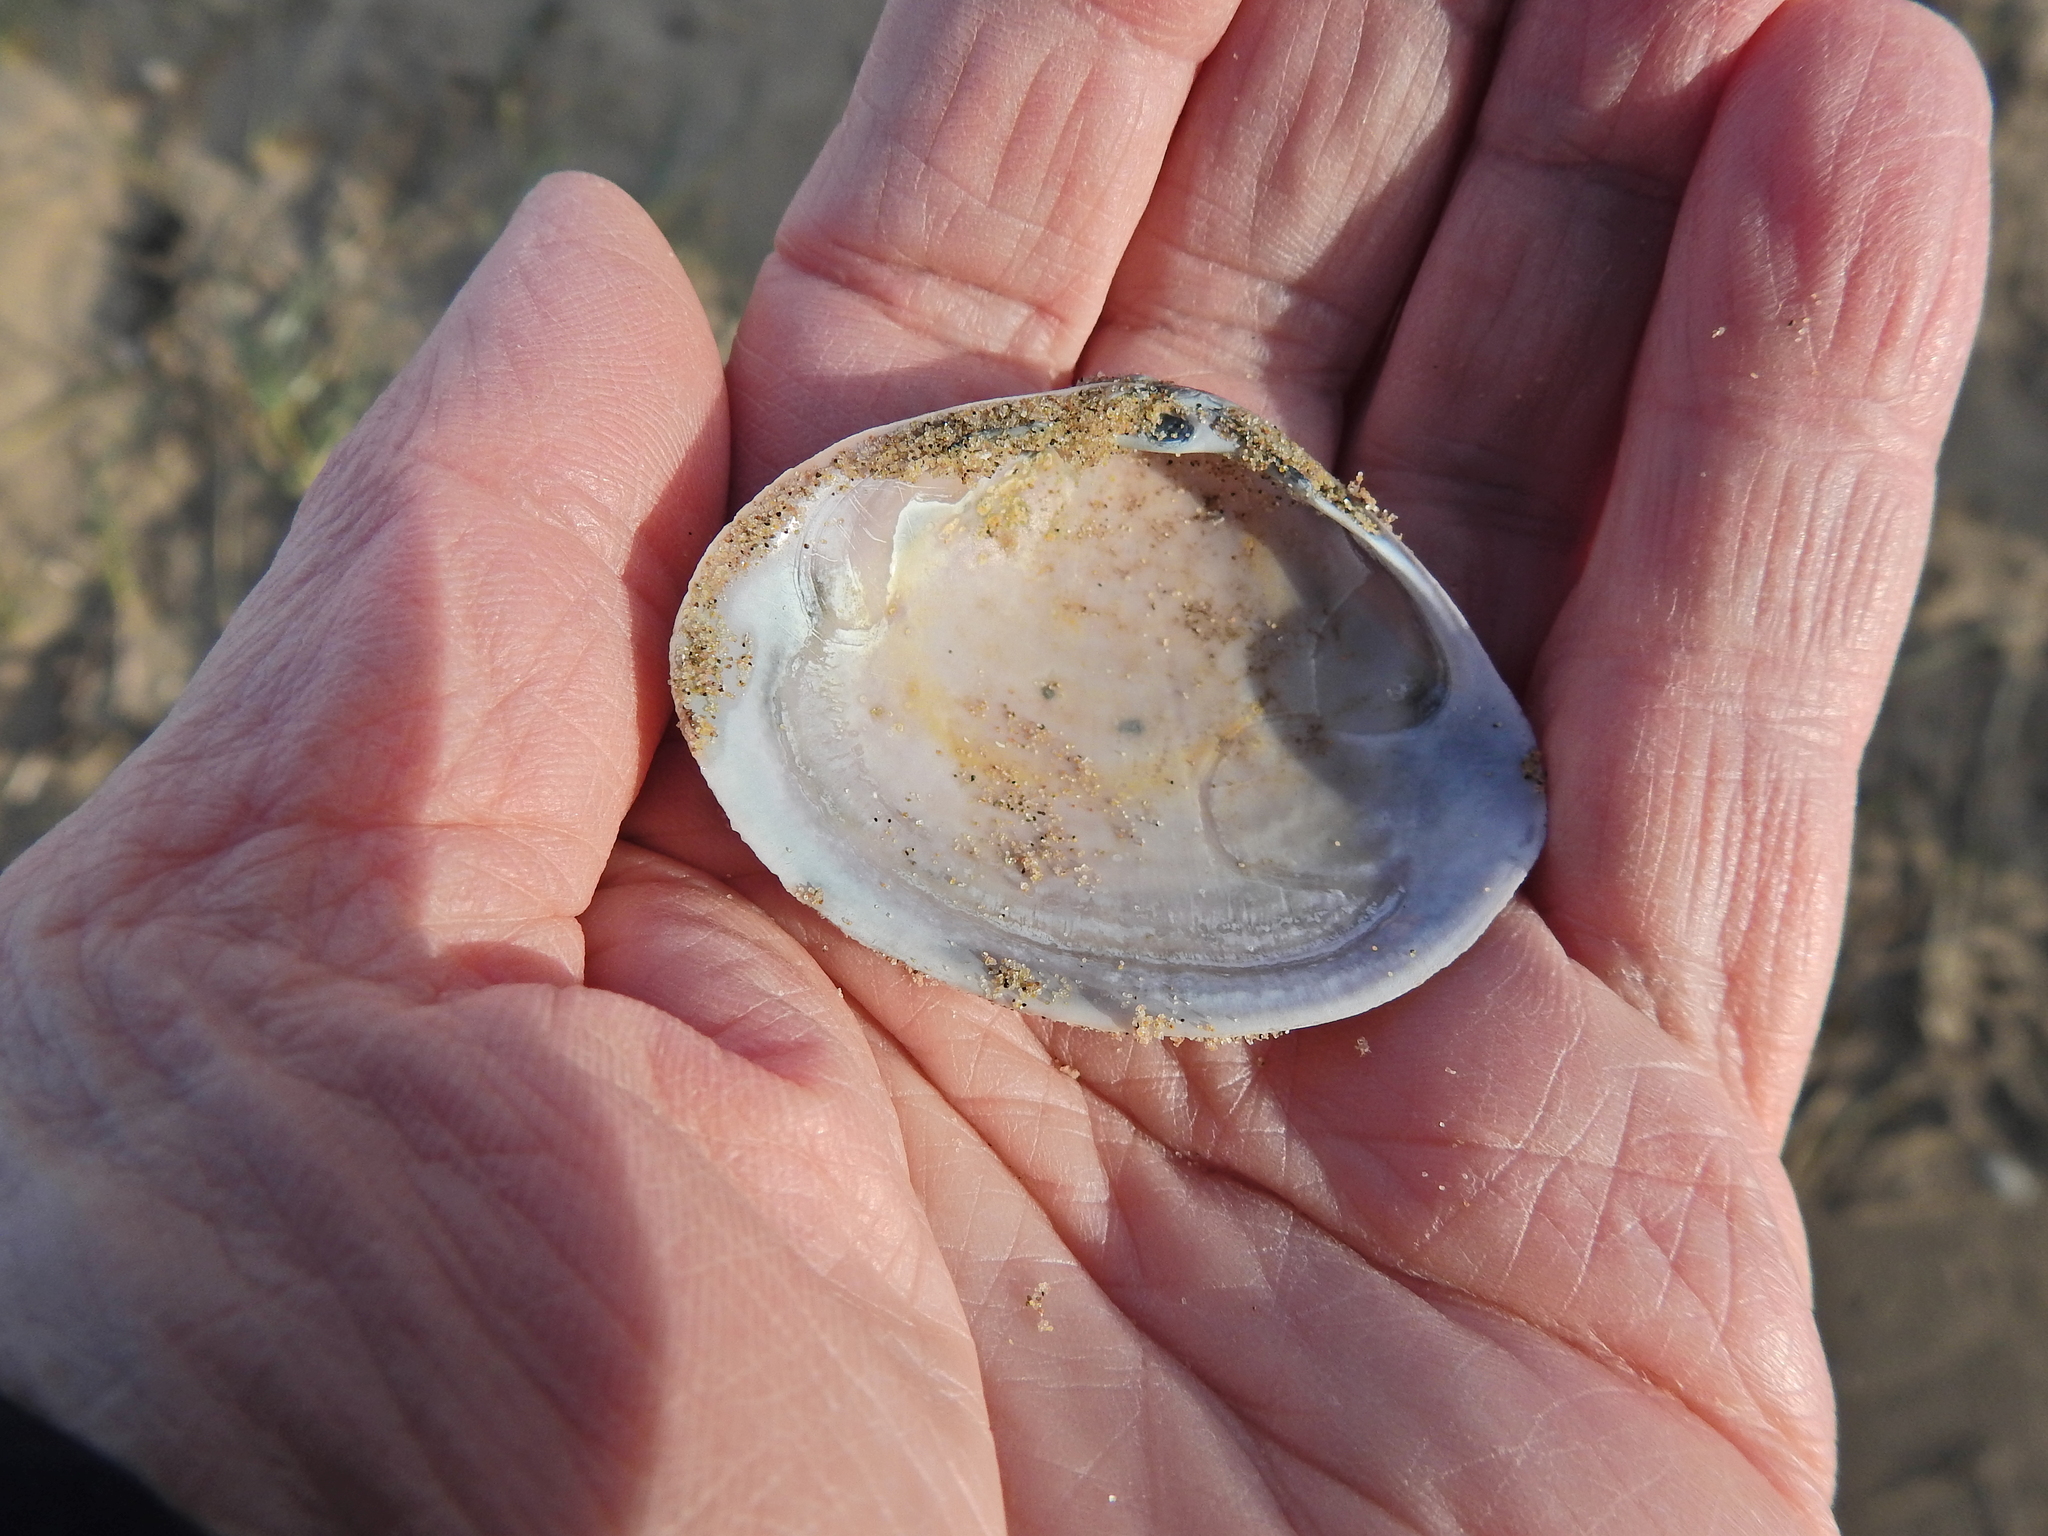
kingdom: Animalia
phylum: Mollusca
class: Bivalvia
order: Venerida
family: Mactridae
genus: Mactra
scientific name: Mactra stultorum
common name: Rayed trough shell
